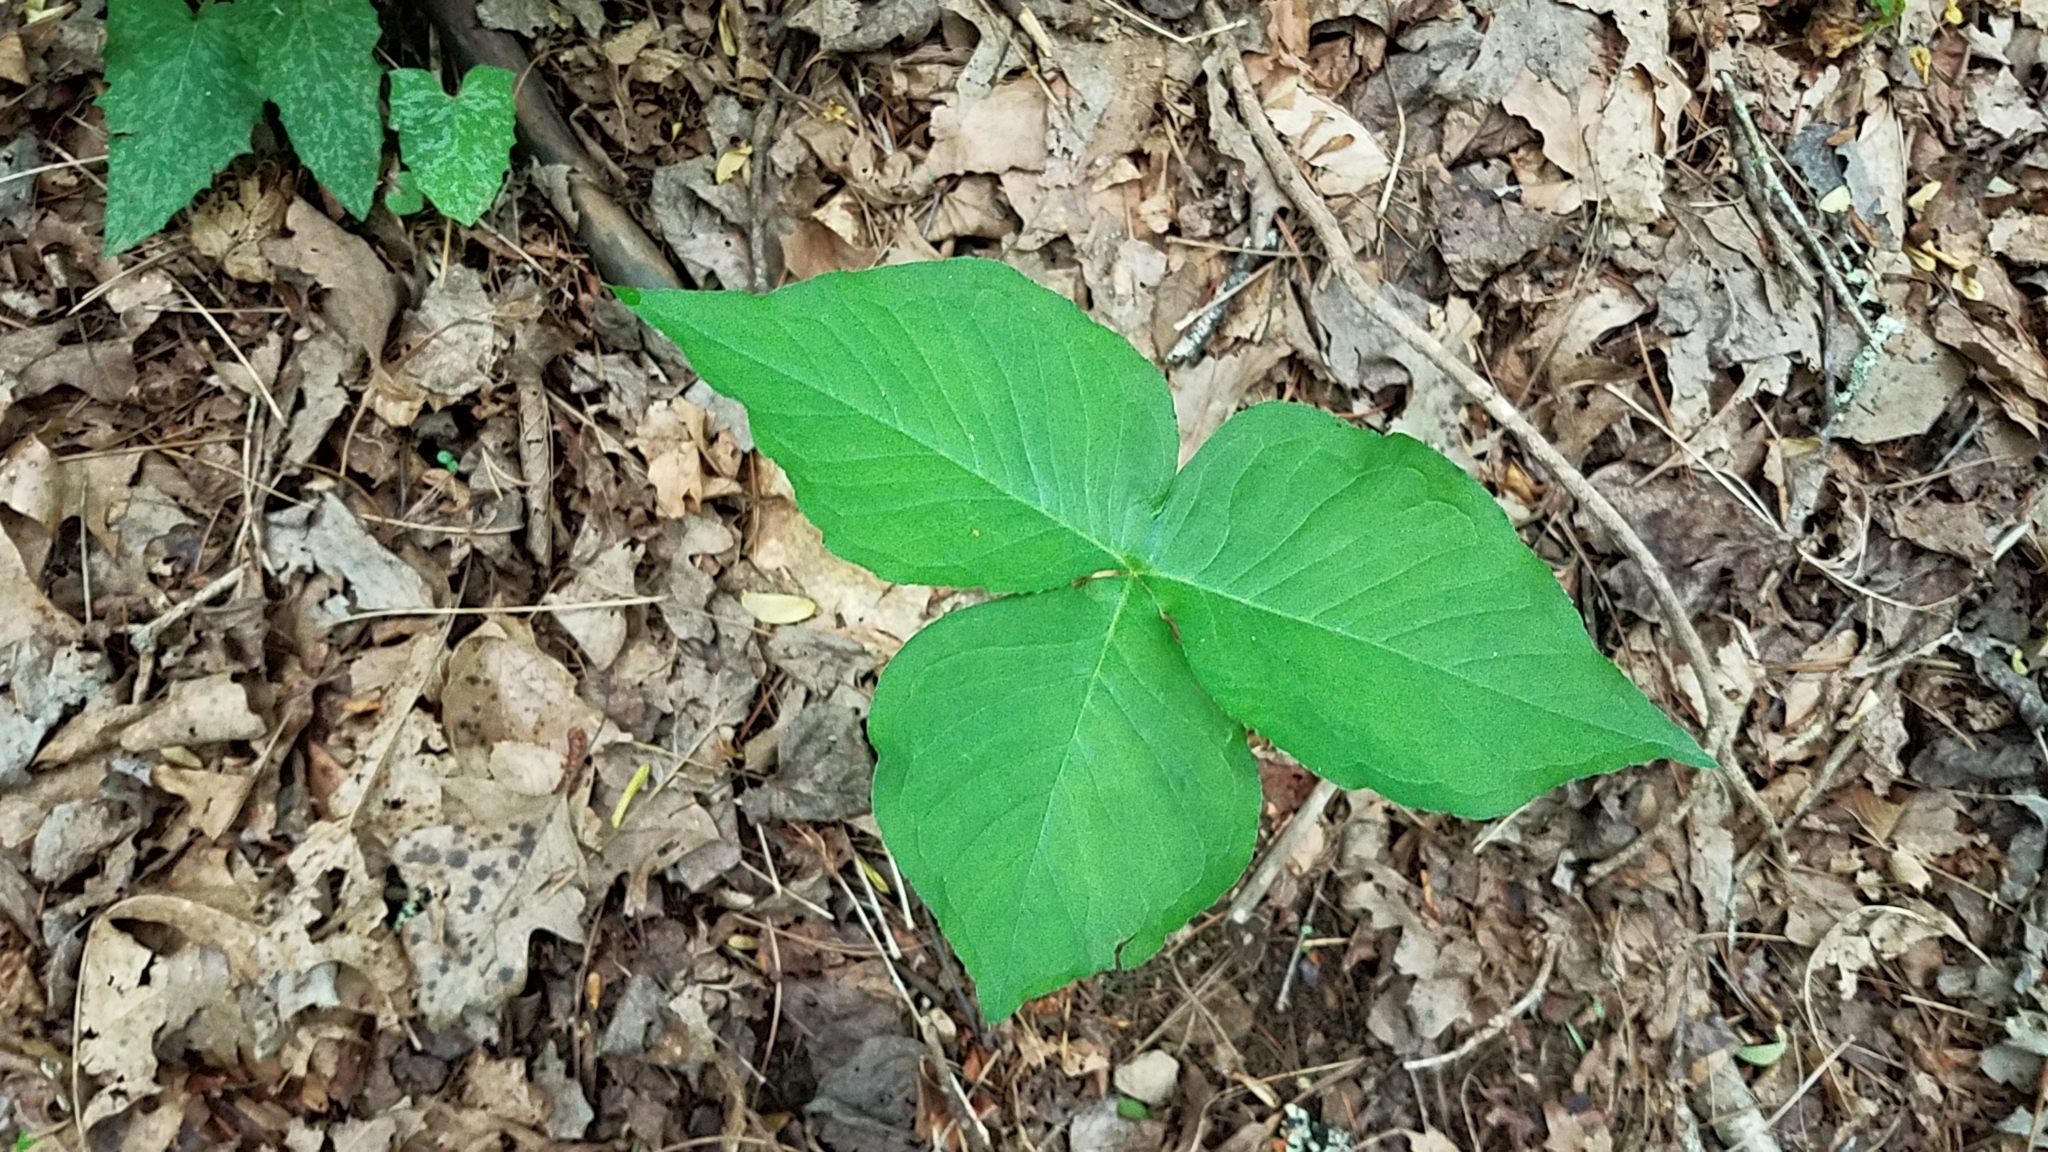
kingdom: Plantae
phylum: Tracheophyta
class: Liliopsida
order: Alismatales
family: Araceae
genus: Arisaema
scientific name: Arisaema triphyllum
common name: Jack-in-the-pulpit
